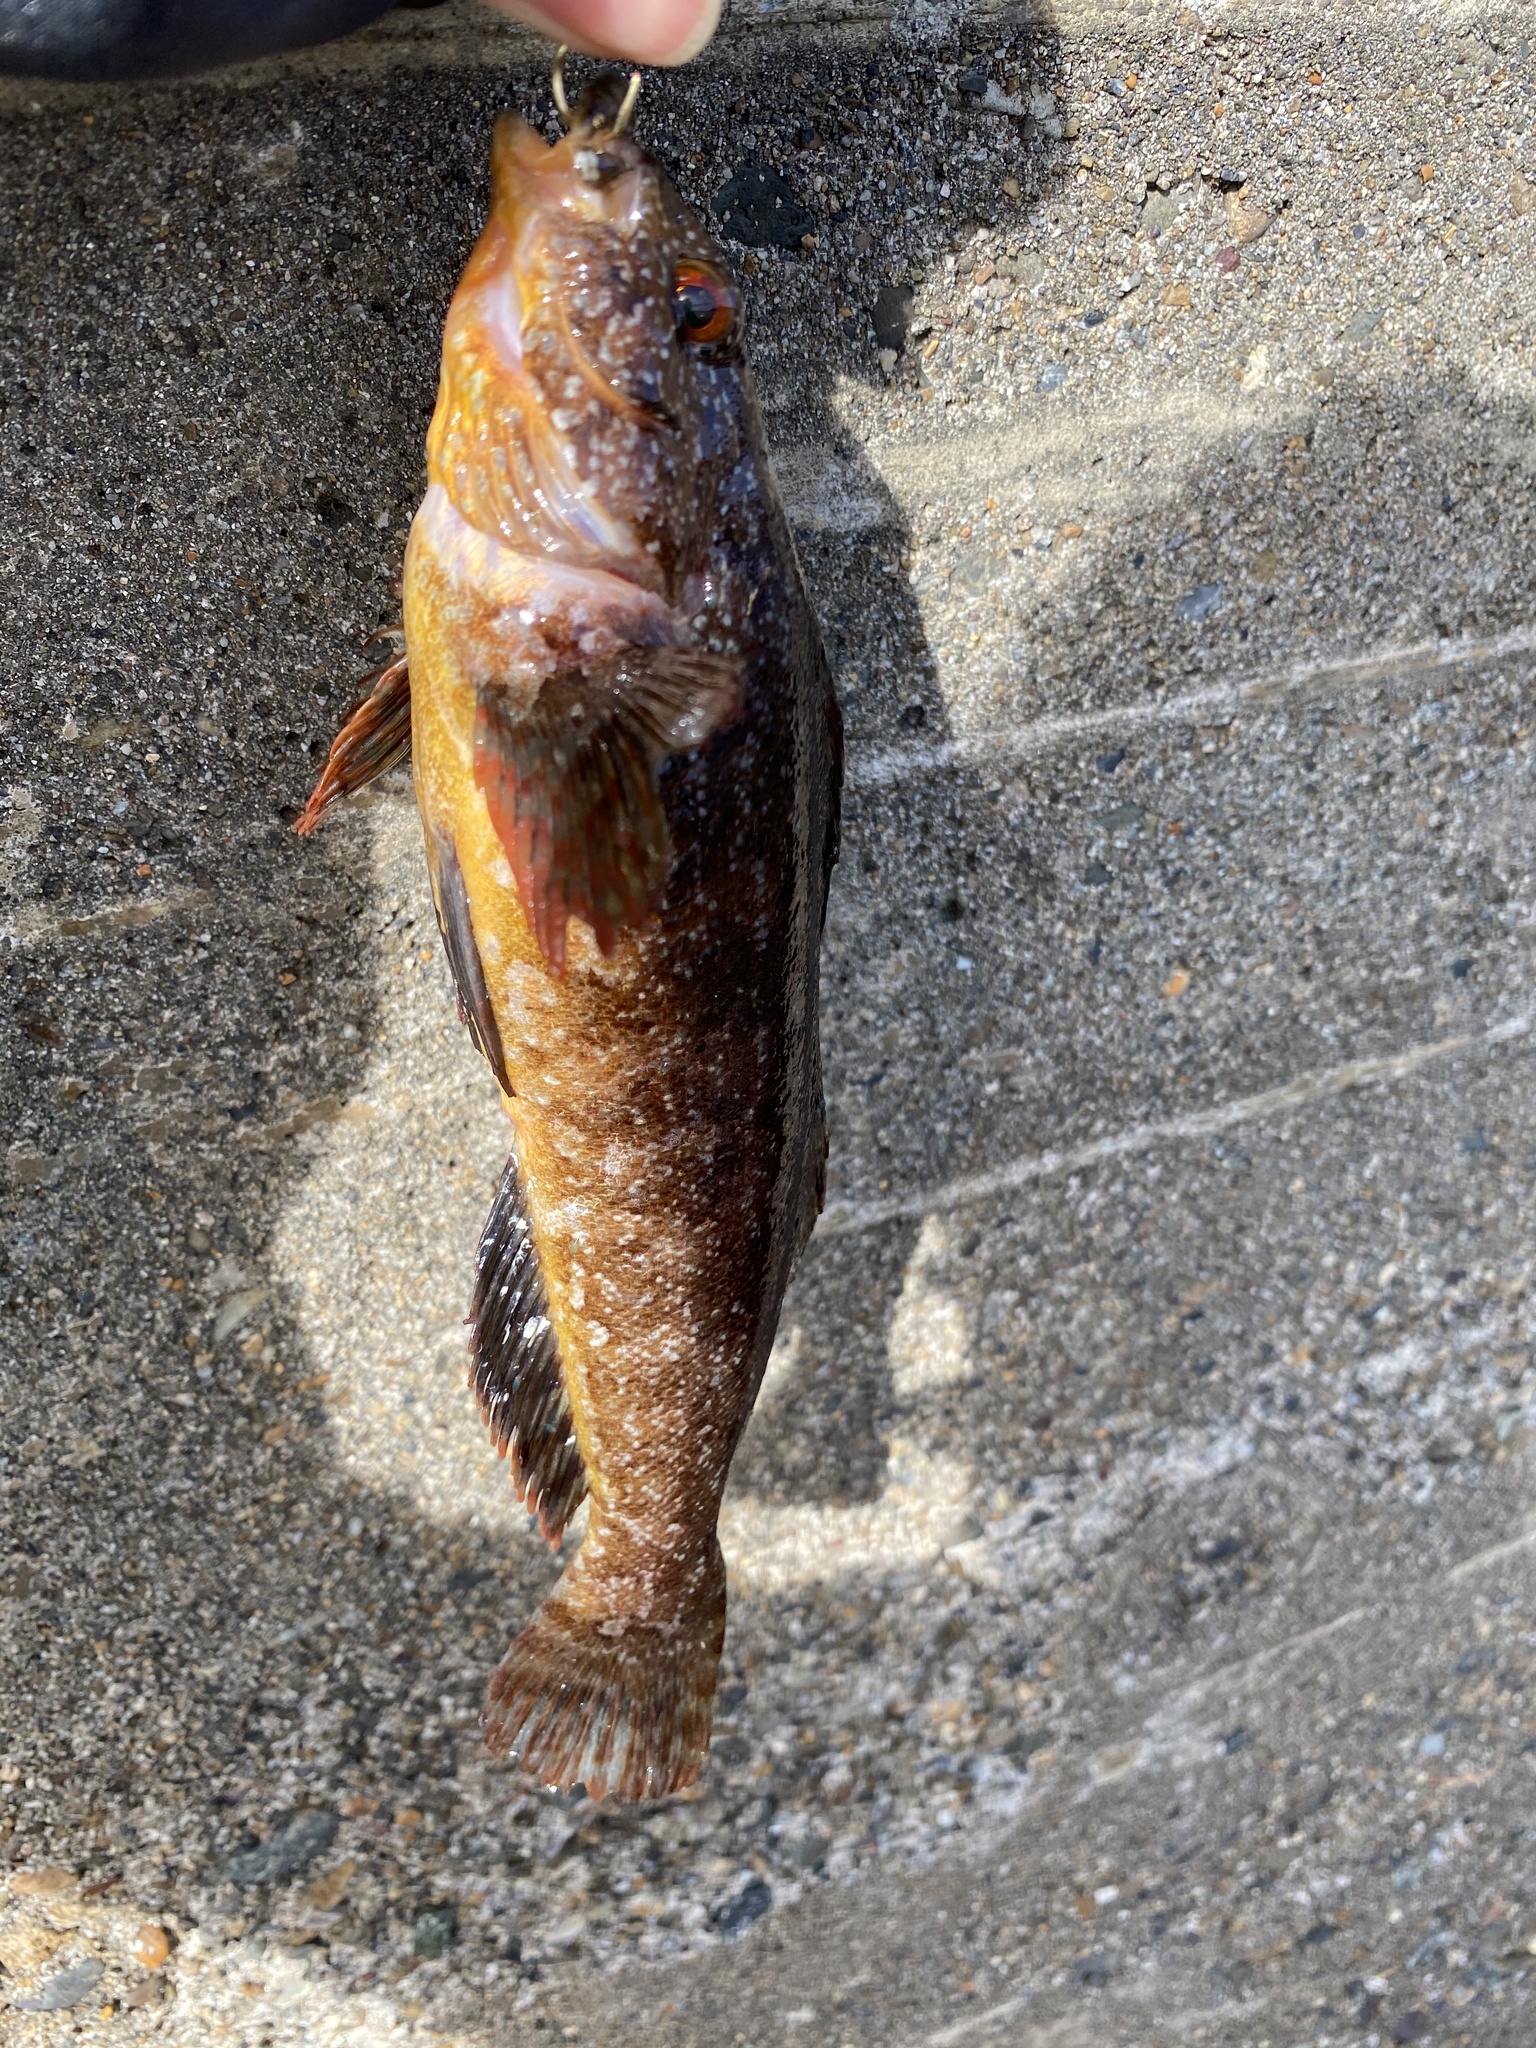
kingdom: Animalia
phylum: Chordata
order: Scorpaeniformes
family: Hexagrammidae
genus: Hexagrammos
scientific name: Hexagrammos agrammus
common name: Spotty-bellied greenling
